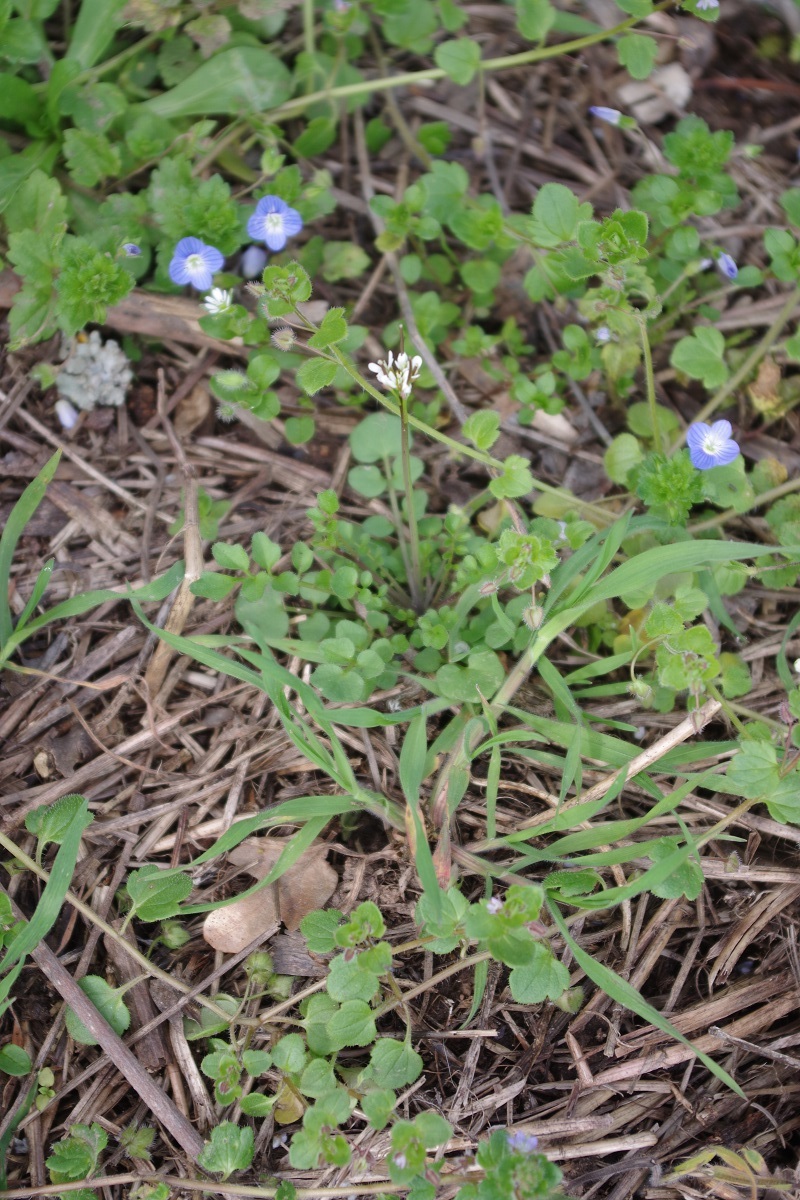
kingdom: Plantae
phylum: Tracheophyta
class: Magnoliopsida
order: Brassicales
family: Brassicaceae
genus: Cardamine
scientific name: Cardamine hirsuta
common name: Hairy bittercress
